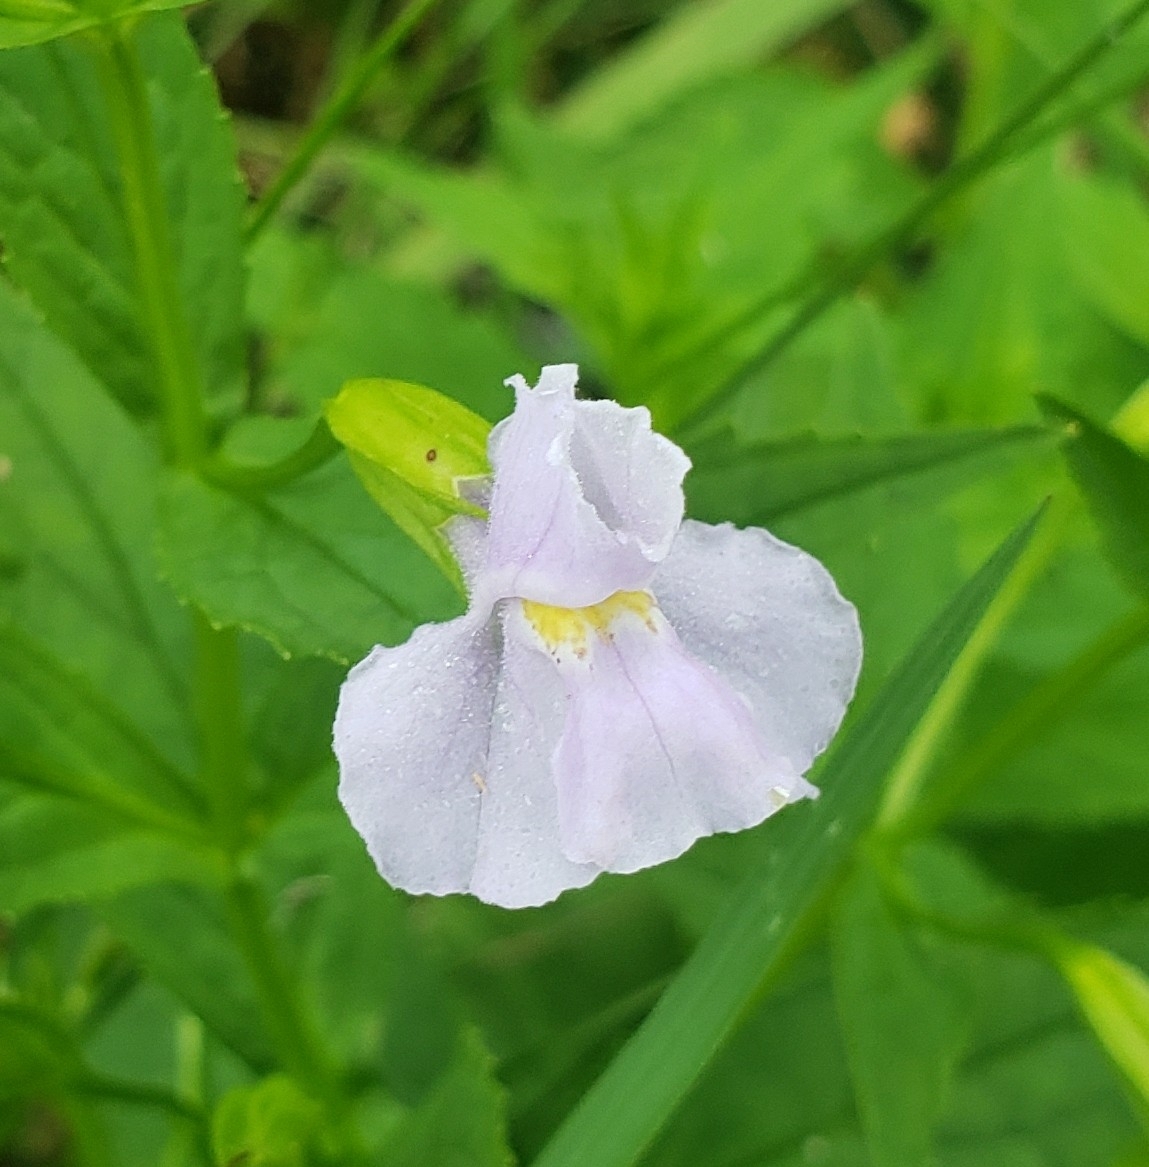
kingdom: Plantae
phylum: Tracheophyta
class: Magnoliopsida
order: Lamiales
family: Phrymaceae
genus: Mimulus
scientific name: Mimulus ringens
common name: Allegheny monkeyflower
